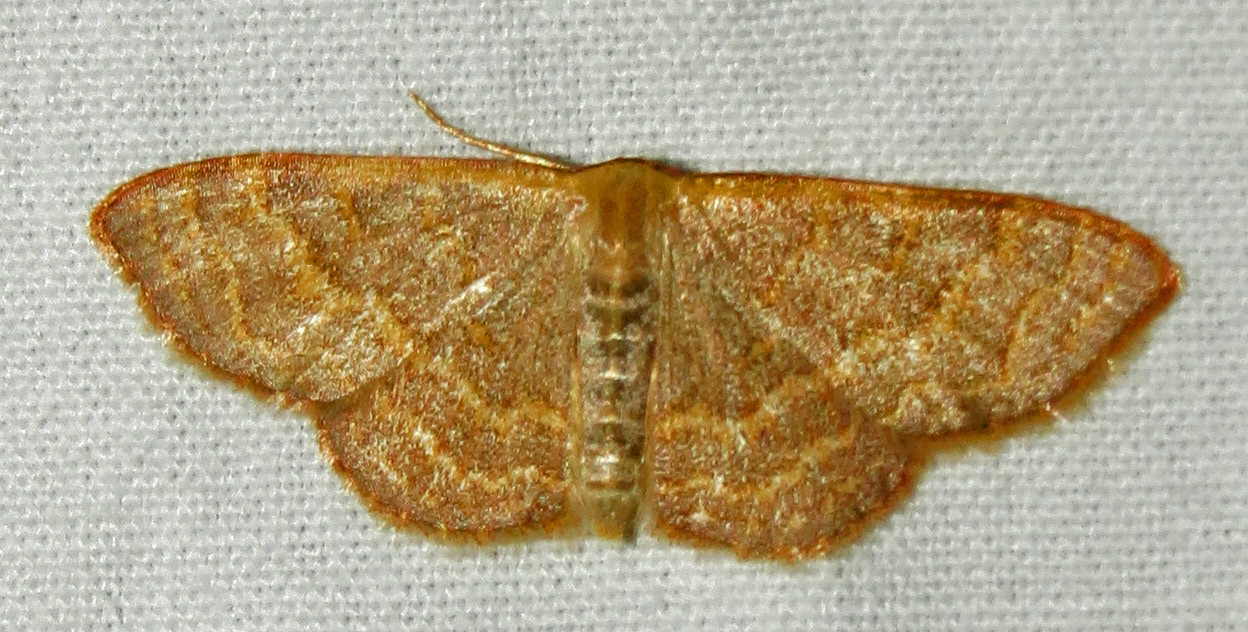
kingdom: Animalia
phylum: Arthropoda
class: Insecta
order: Lepidoptera
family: Geometridae
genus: Leptostales
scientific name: Leptostales pannaria
